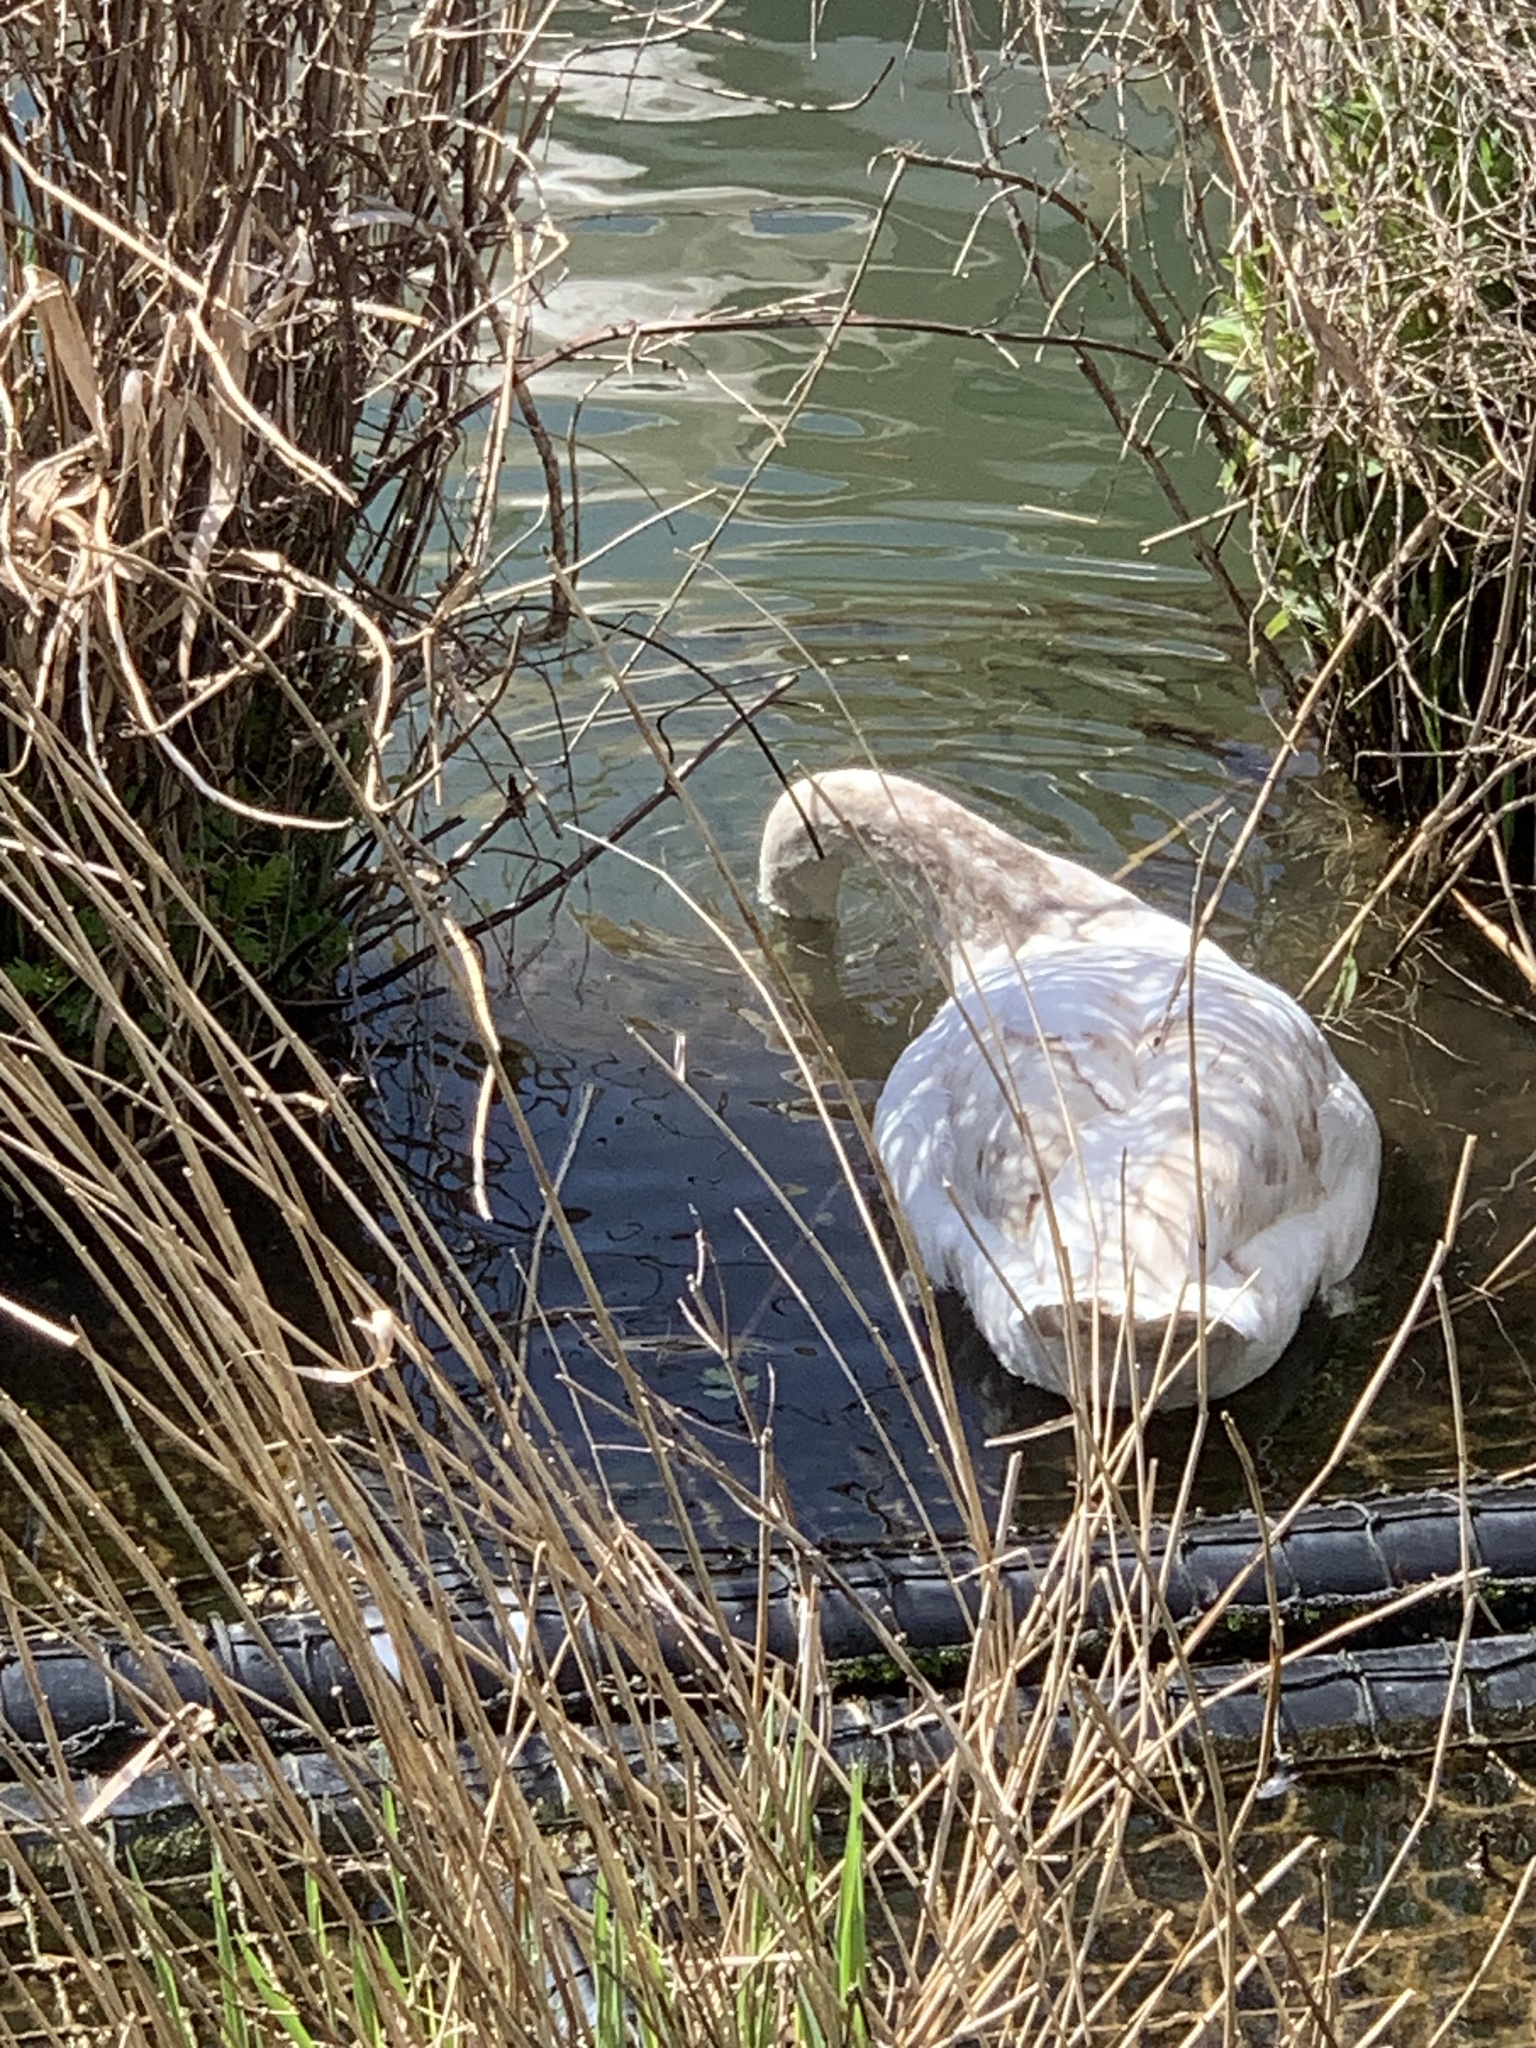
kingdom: Animalia
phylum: Chordata
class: Aves
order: Anseriformes
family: Anatidae
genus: Cygnus
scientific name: Cygnus olor
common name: Mute swan
